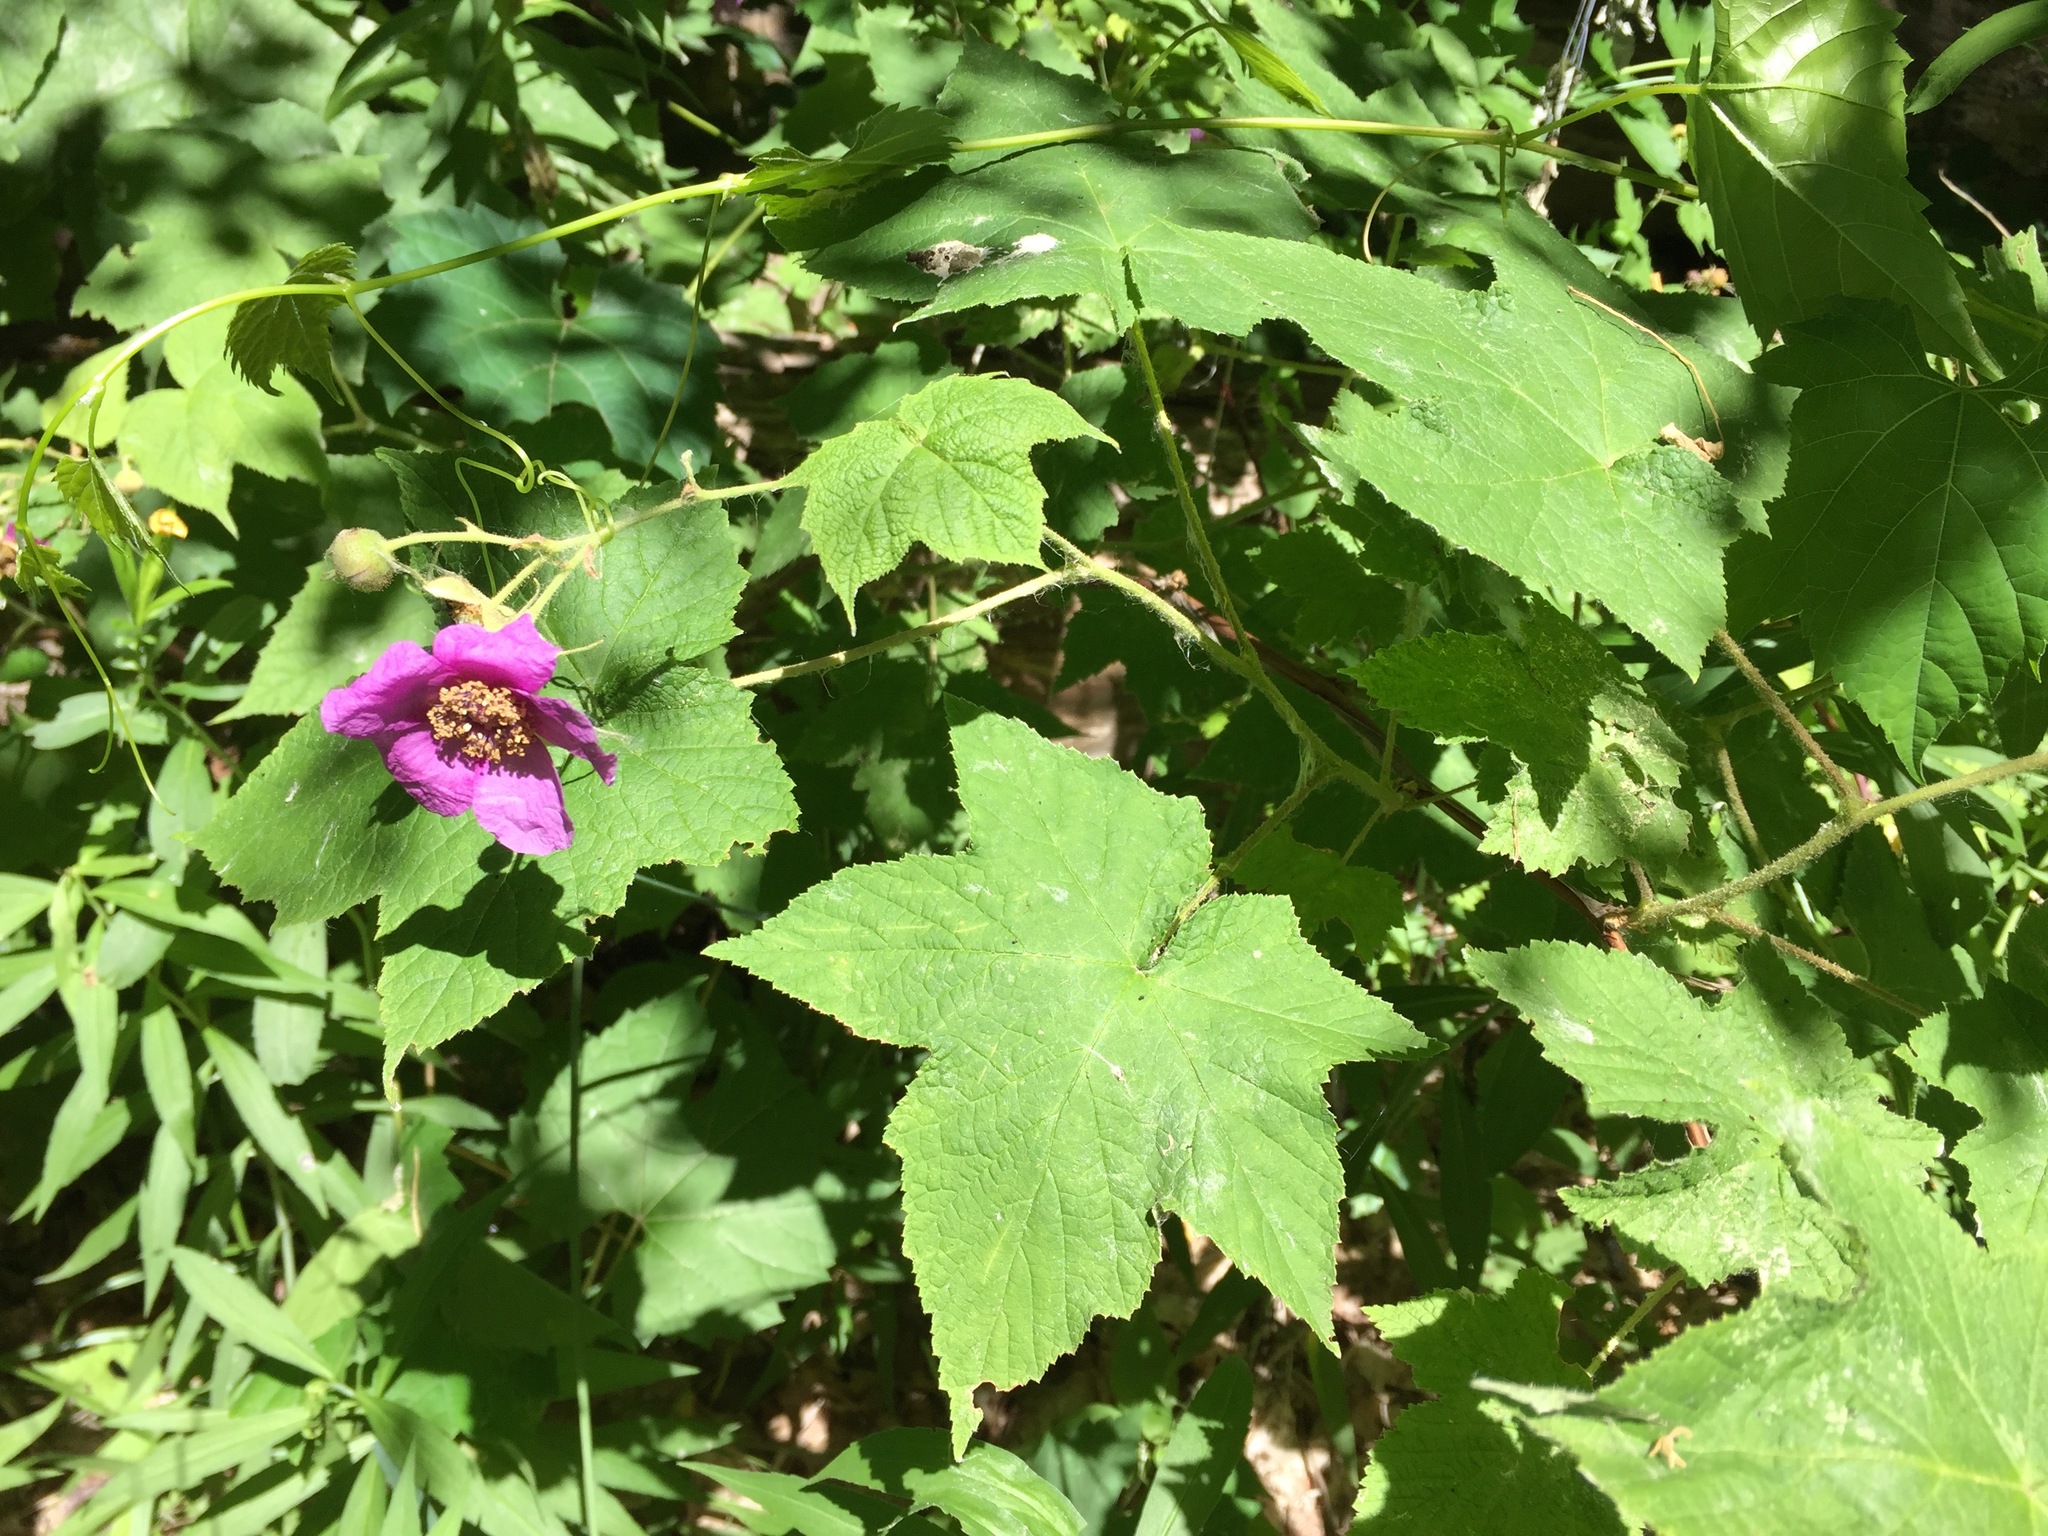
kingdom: Plantae
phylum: Tracheophyta
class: Magnoliopsida
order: Rosales
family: Rosaceae
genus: Rubus
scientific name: Rubus odoratus
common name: Purple-flowered raspberry
